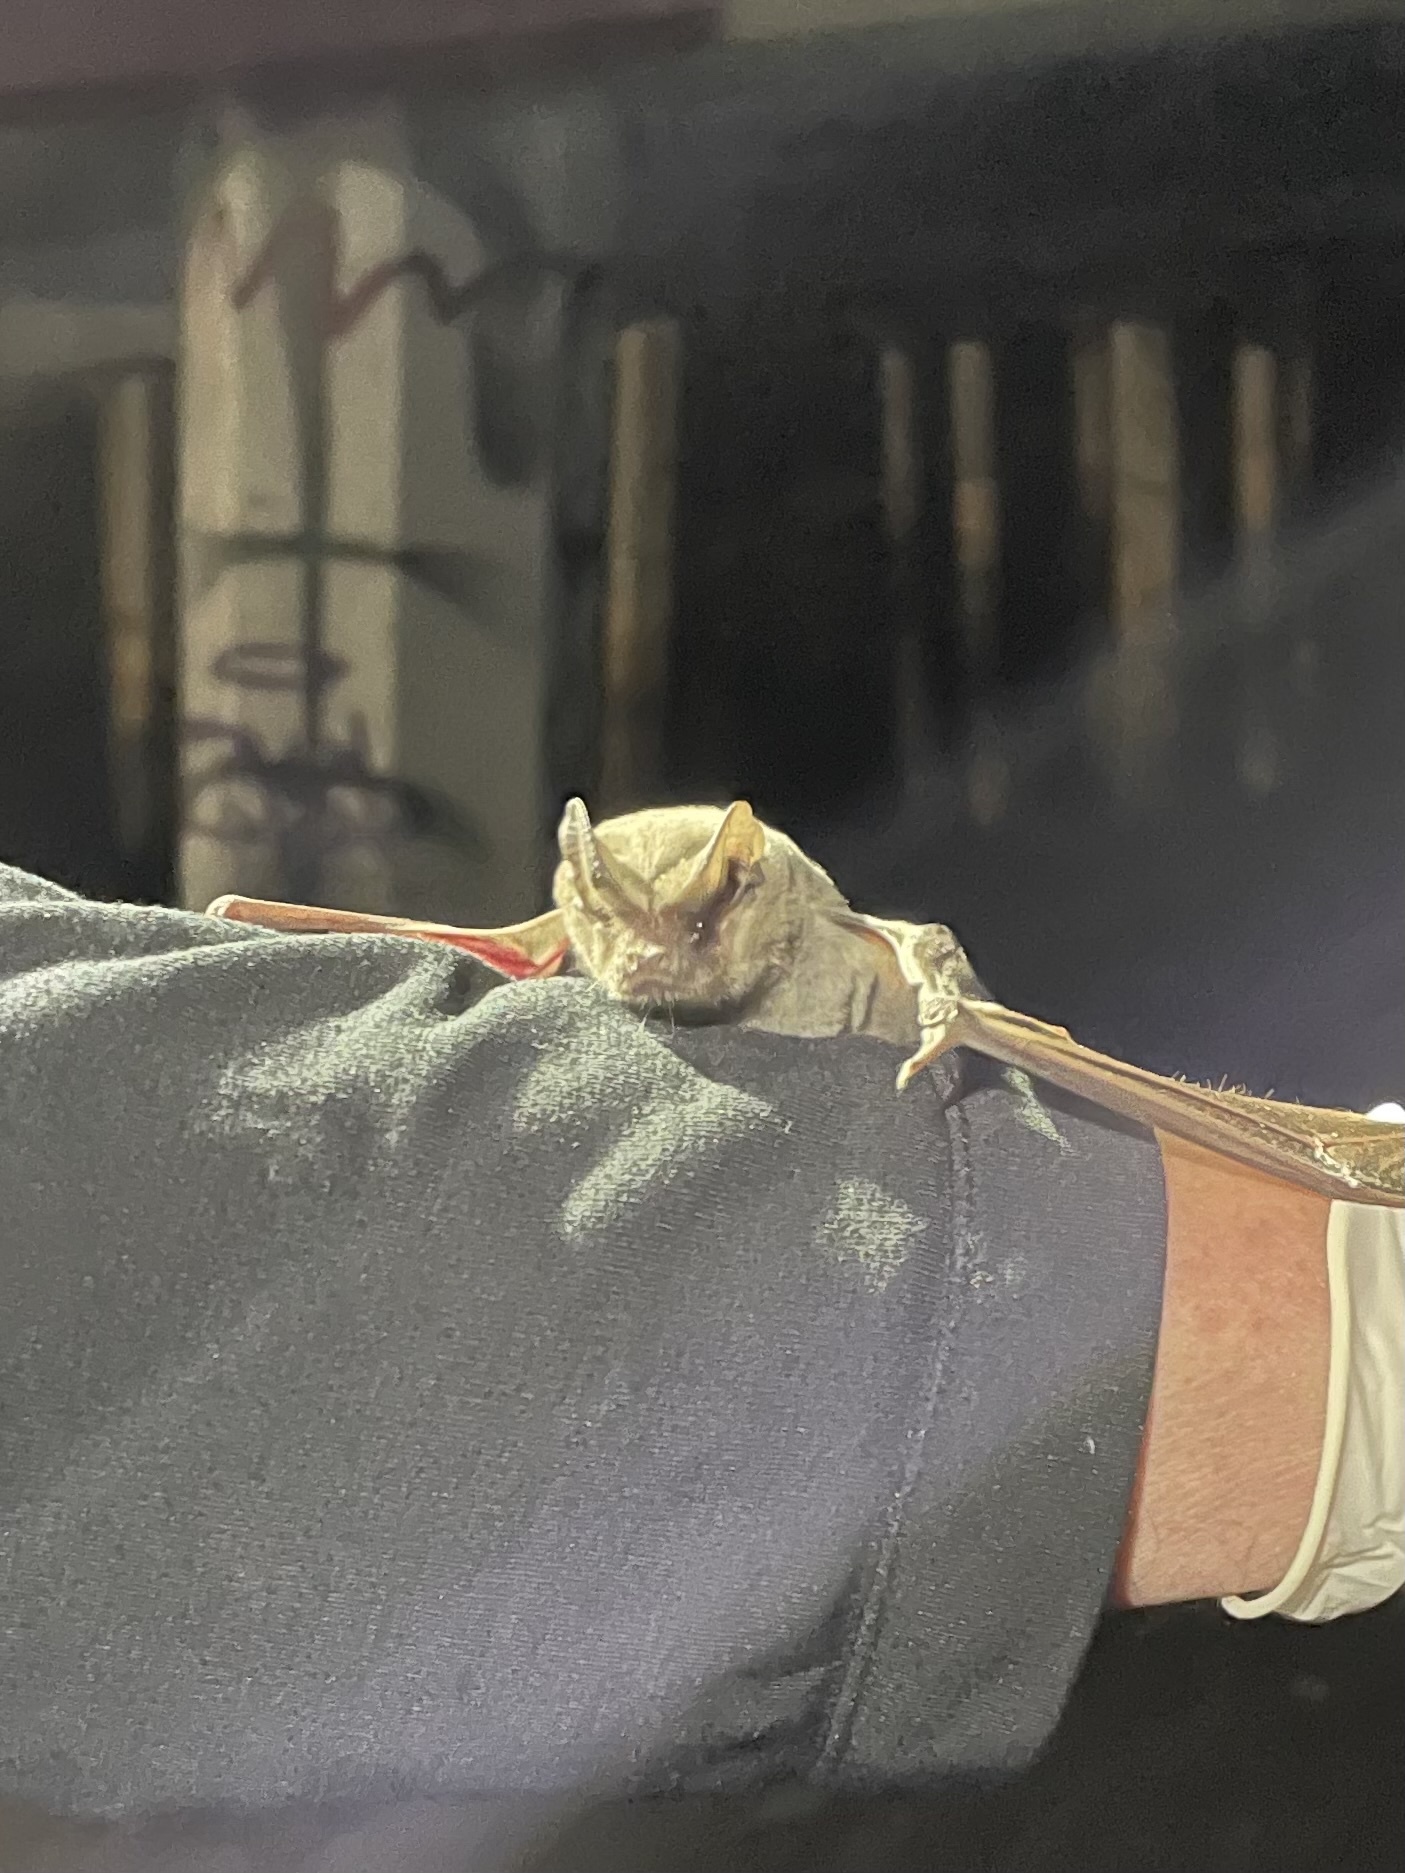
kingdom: Animalia
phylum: Chordata
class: Mammalia
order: Chiroptera
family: Molossidae
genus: Tadarida
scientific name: Tadarida brasiliensis
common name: Mexican free-tailed bat
